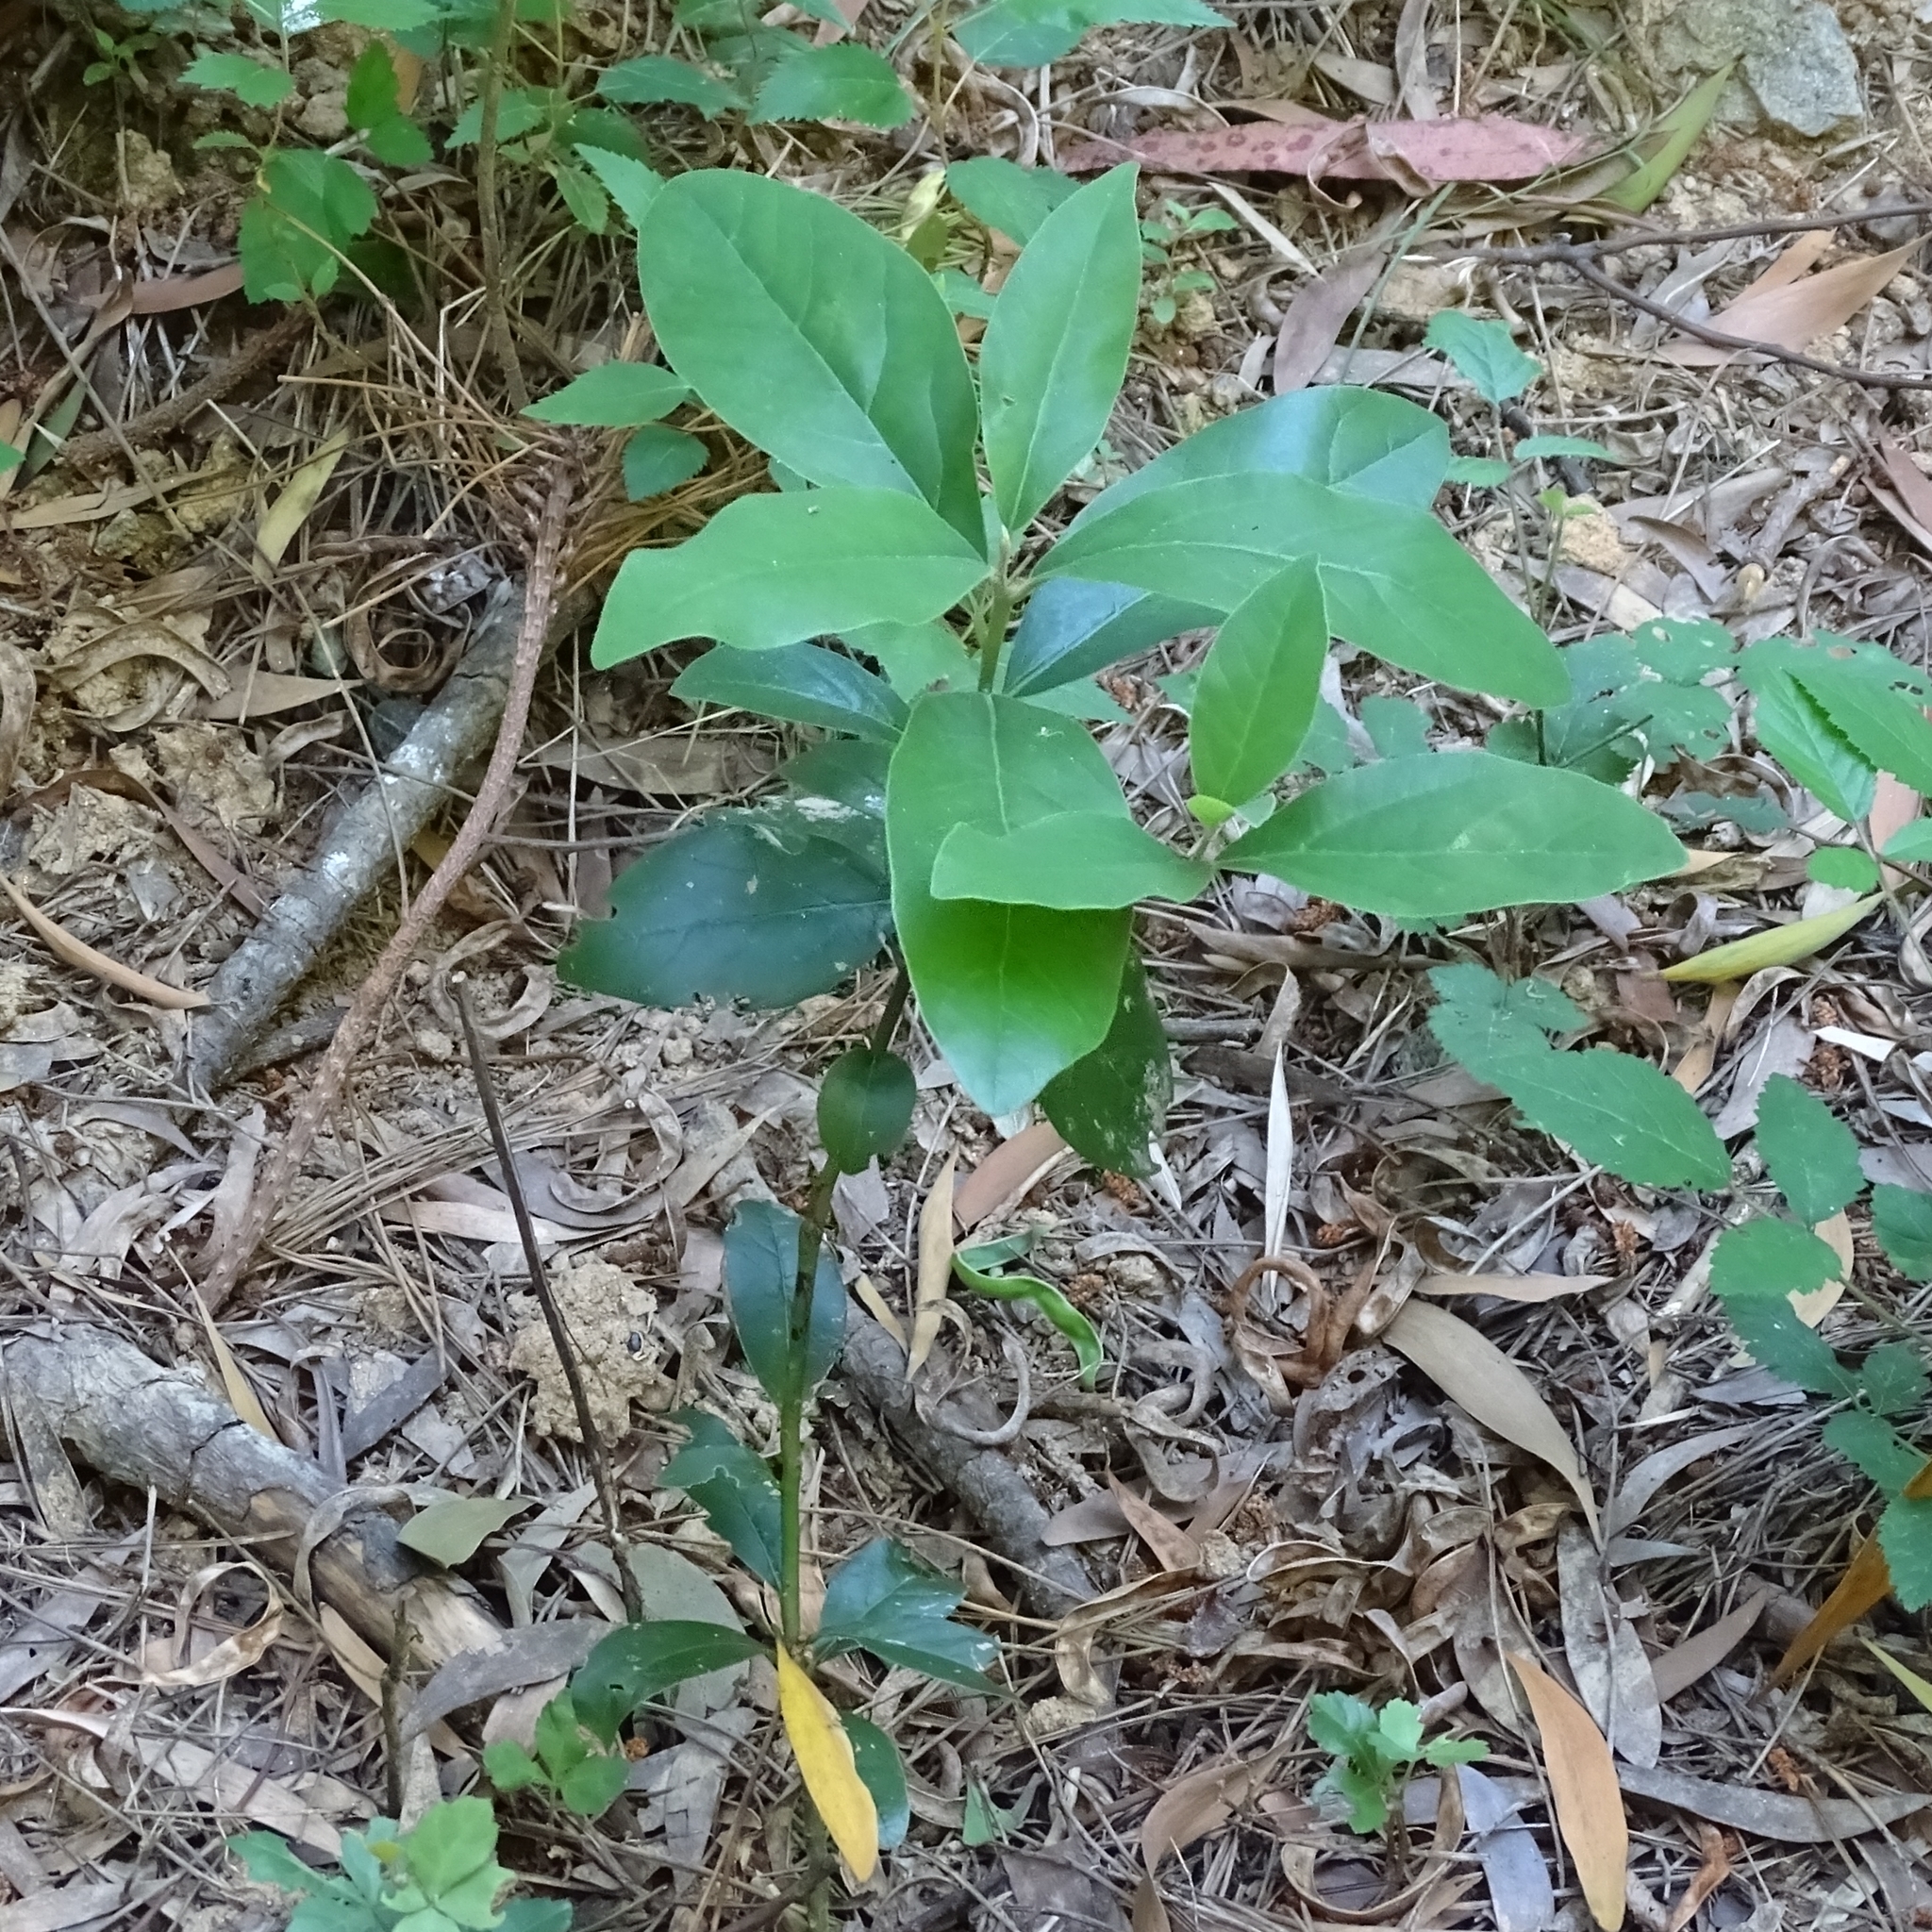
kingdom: Plantae
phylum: Tracheophyta
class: Magnoliopsida
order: Laurales
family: Lauraceae
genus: Persea
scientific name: Persea lingue
